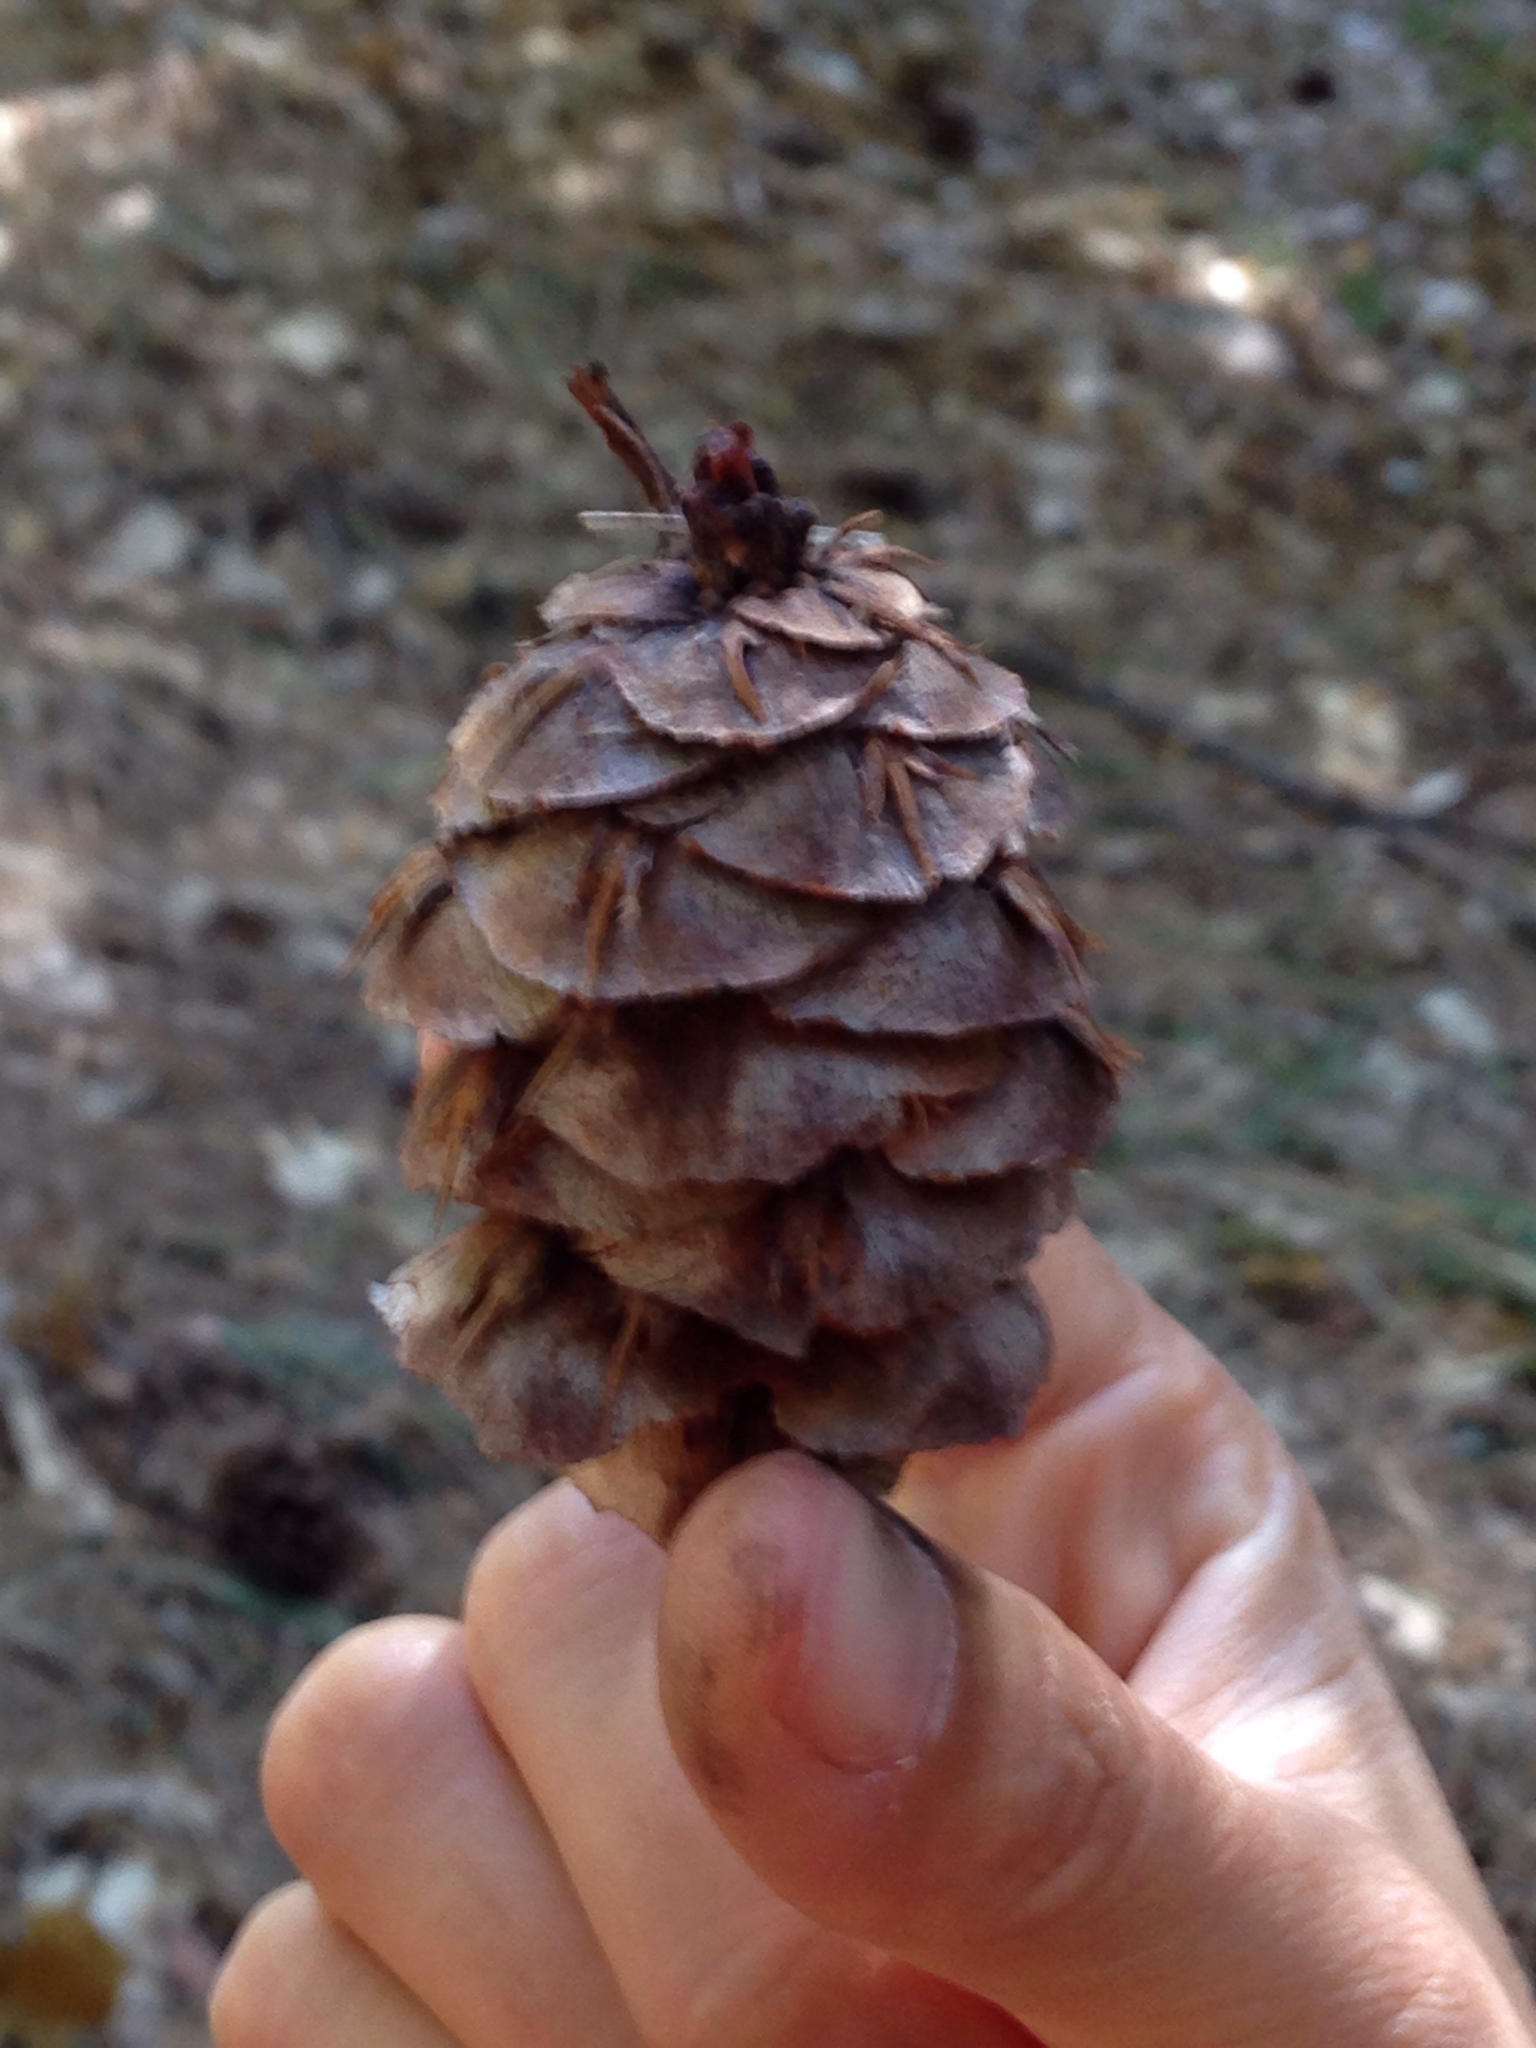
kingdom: Plantae
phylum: Tracheophyta
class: Pinopsida
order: Pinales
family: Pinaceae
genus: Pseudotsuga
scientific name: Pseudotsuga menziesii
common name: Douglas fir
